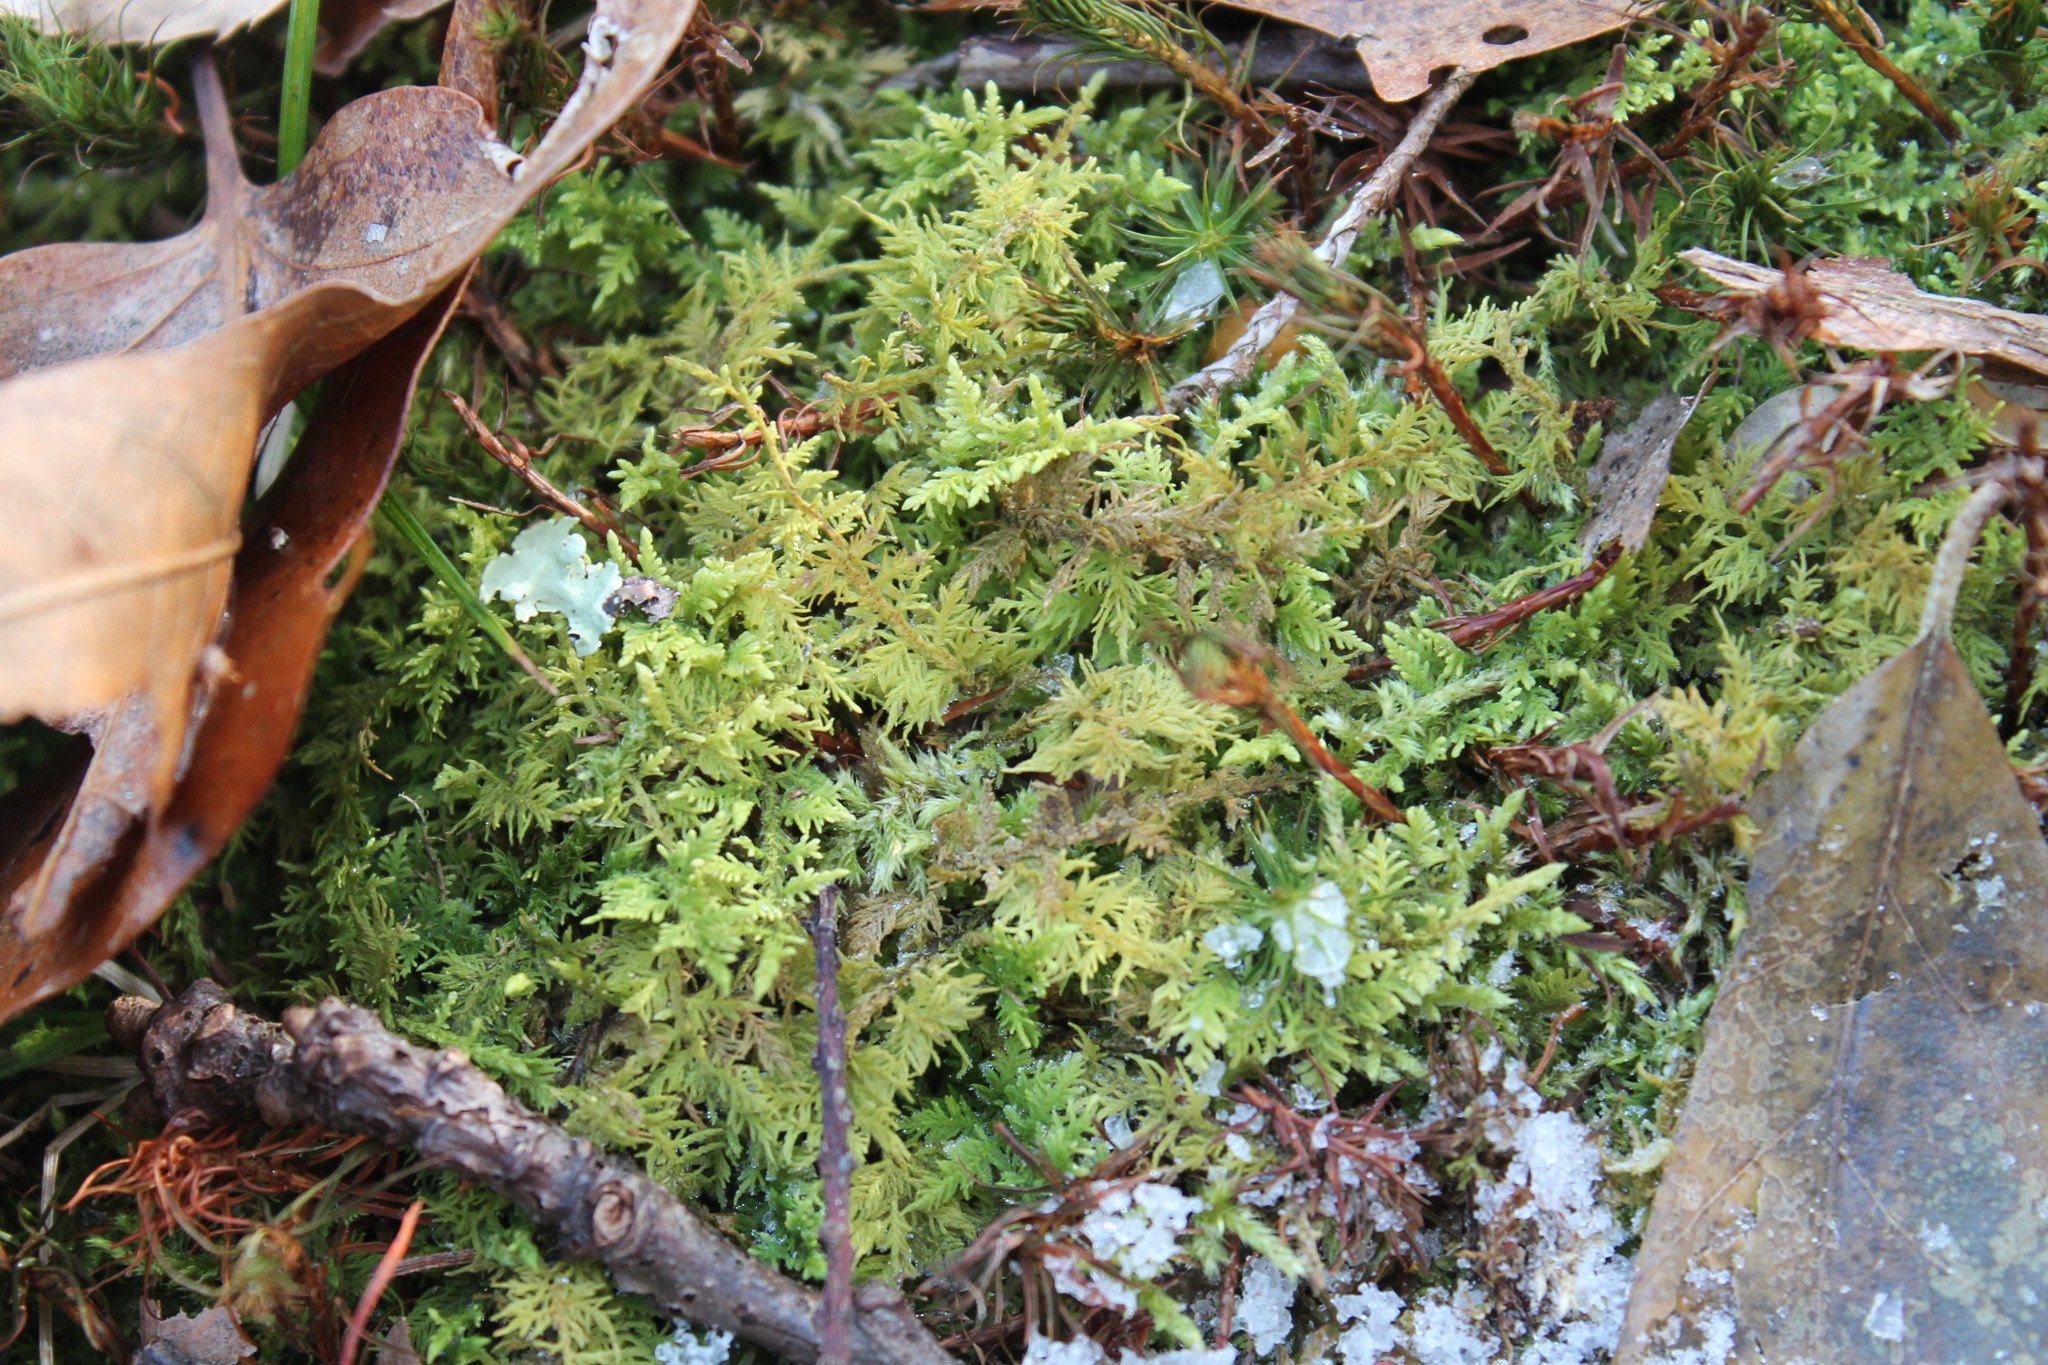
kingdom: Plantae
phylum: Bryophyta
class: Bryopsida
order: Hypnales
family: Thuidiaceae
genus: Thuidium
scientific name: Thuidium delicatulum
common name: Delicate fern moss
